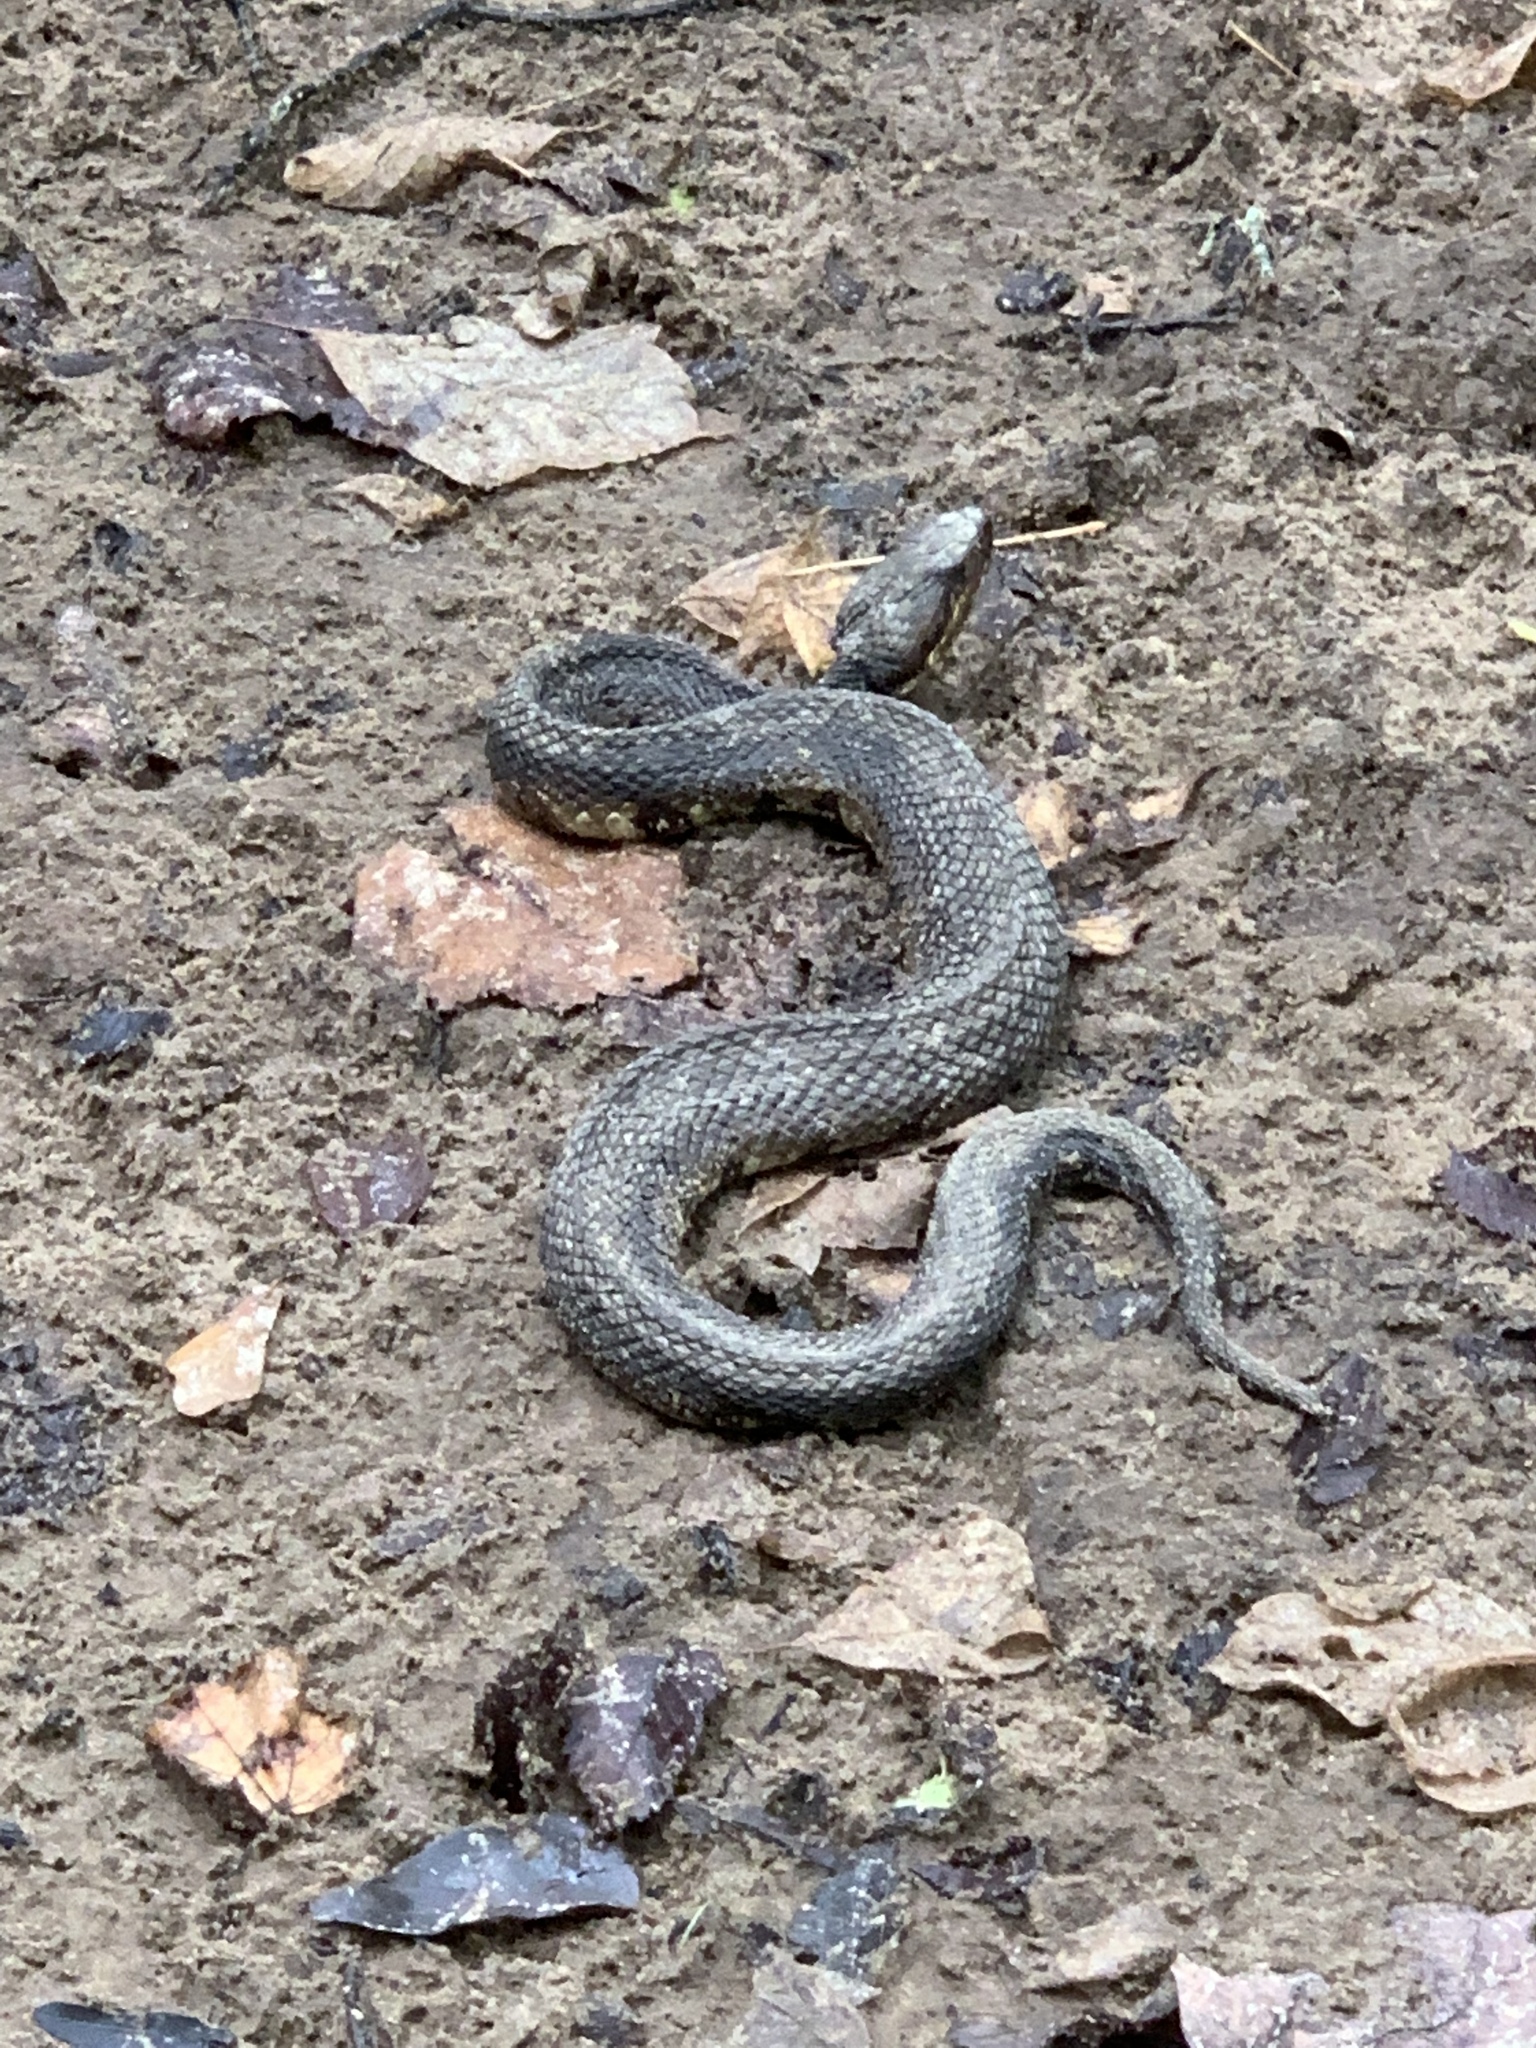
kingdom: Animalia
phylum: Chordata
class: Squamata
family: Viperidae
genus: Agkistrodon
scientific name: Agkistrodon piscivorus
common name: Cottonmouth
